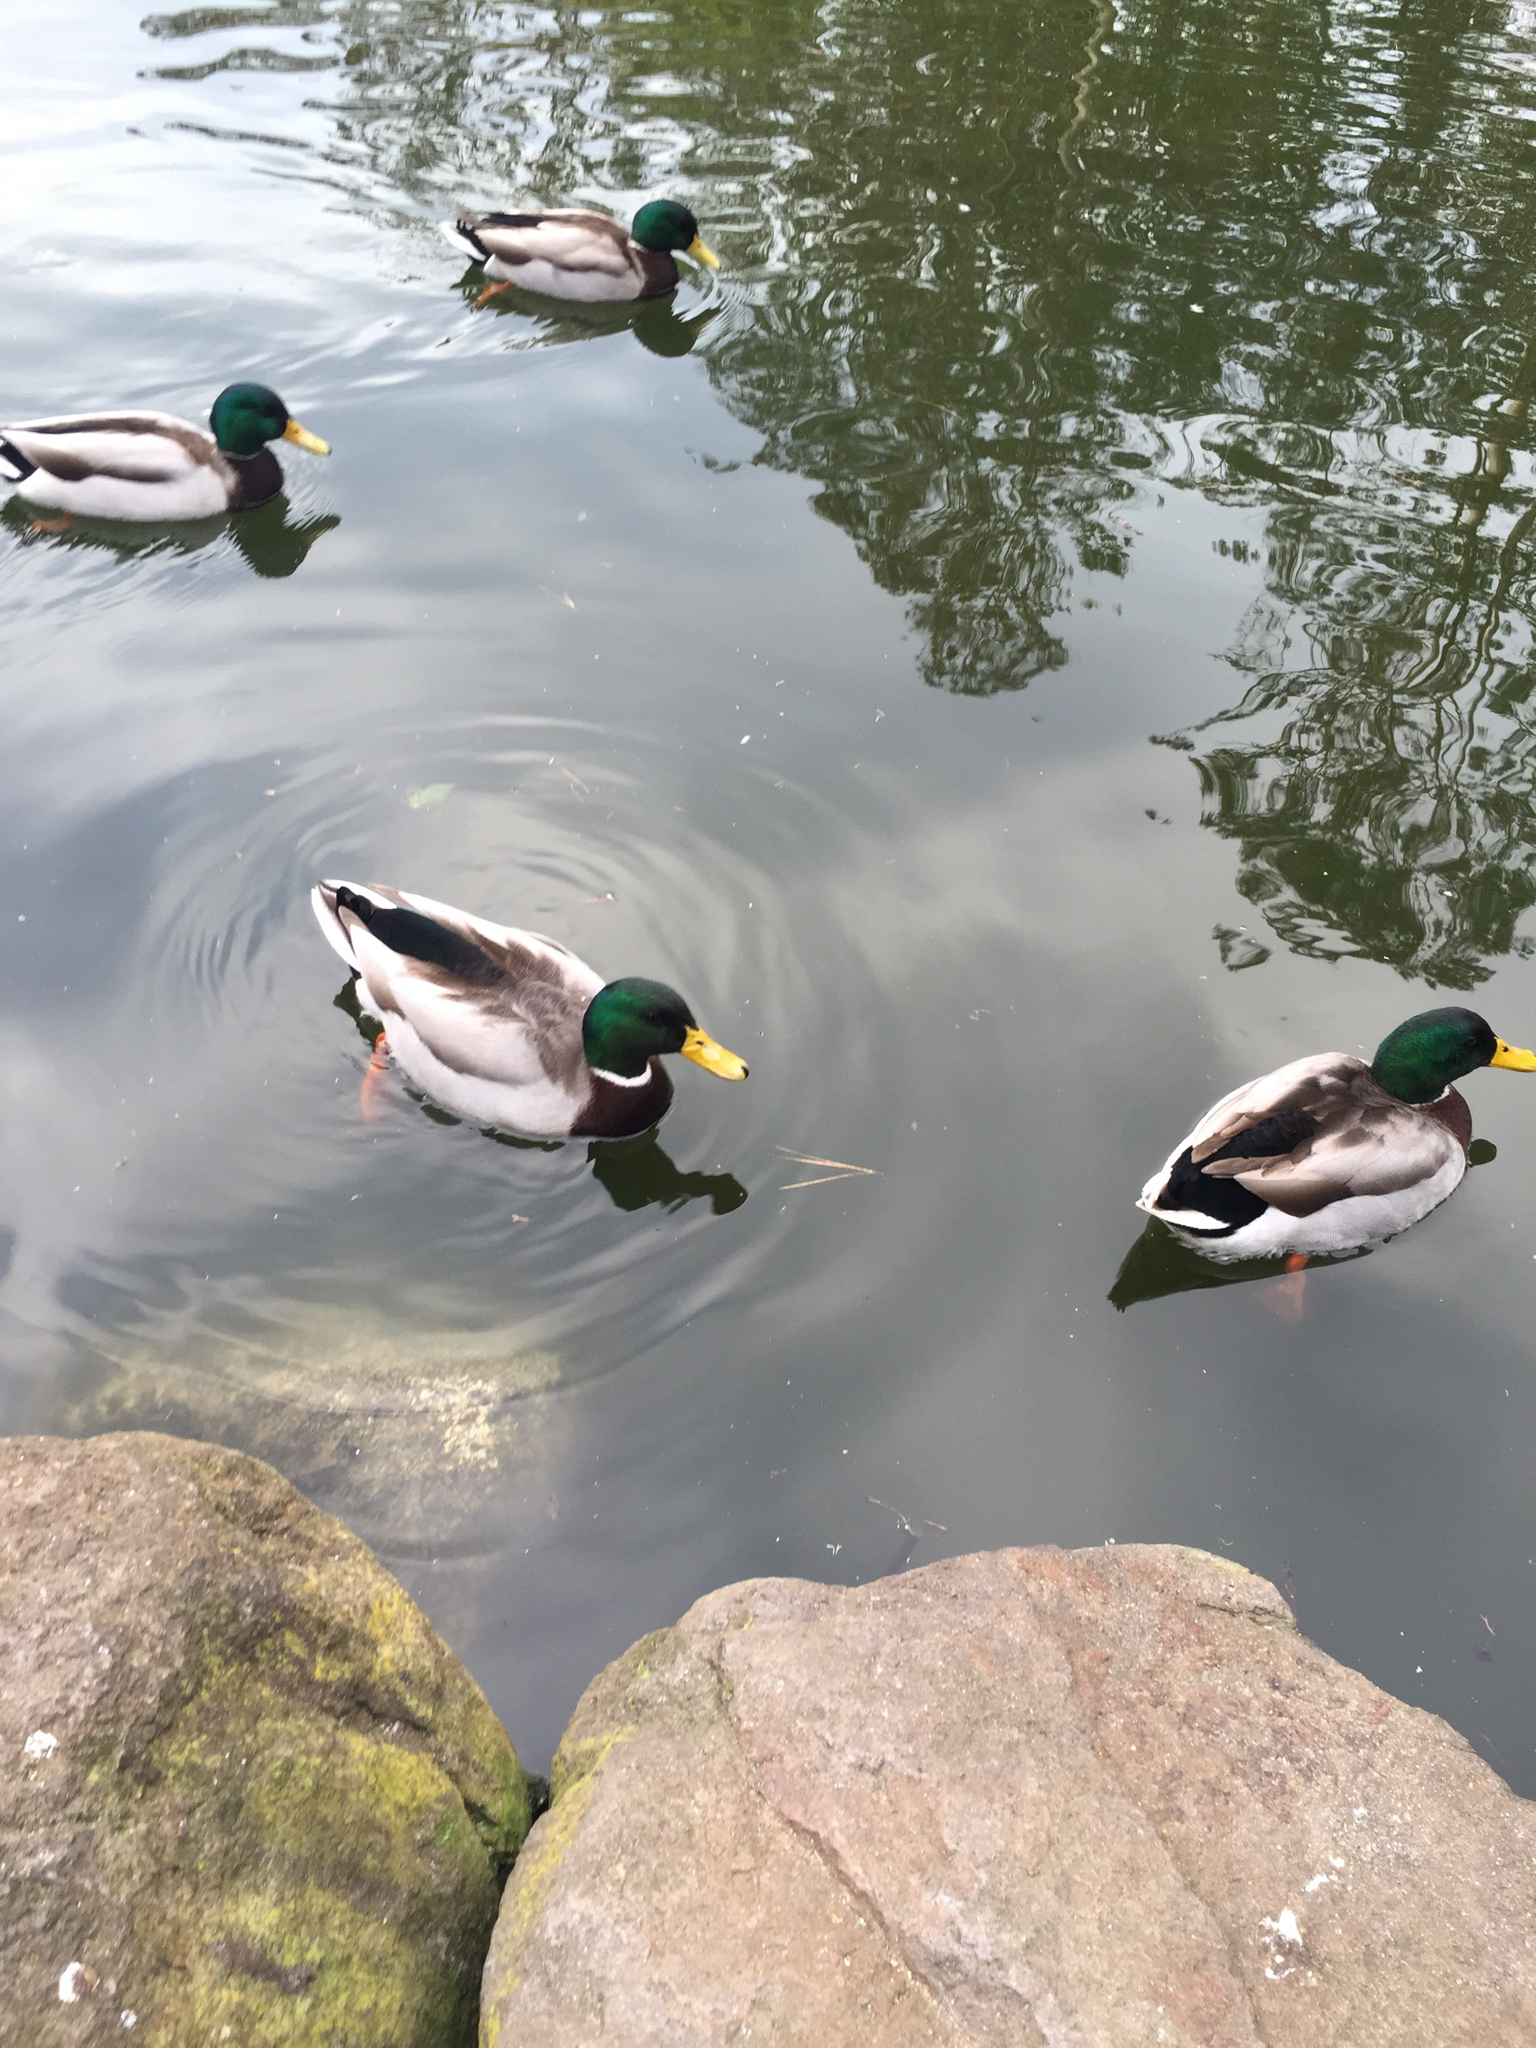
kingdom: Animalia
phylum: Chordata
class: Aves
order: Anseriformes
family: Anatidae
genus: Anas
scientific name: Anas platyrhynchos
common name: Mallard
